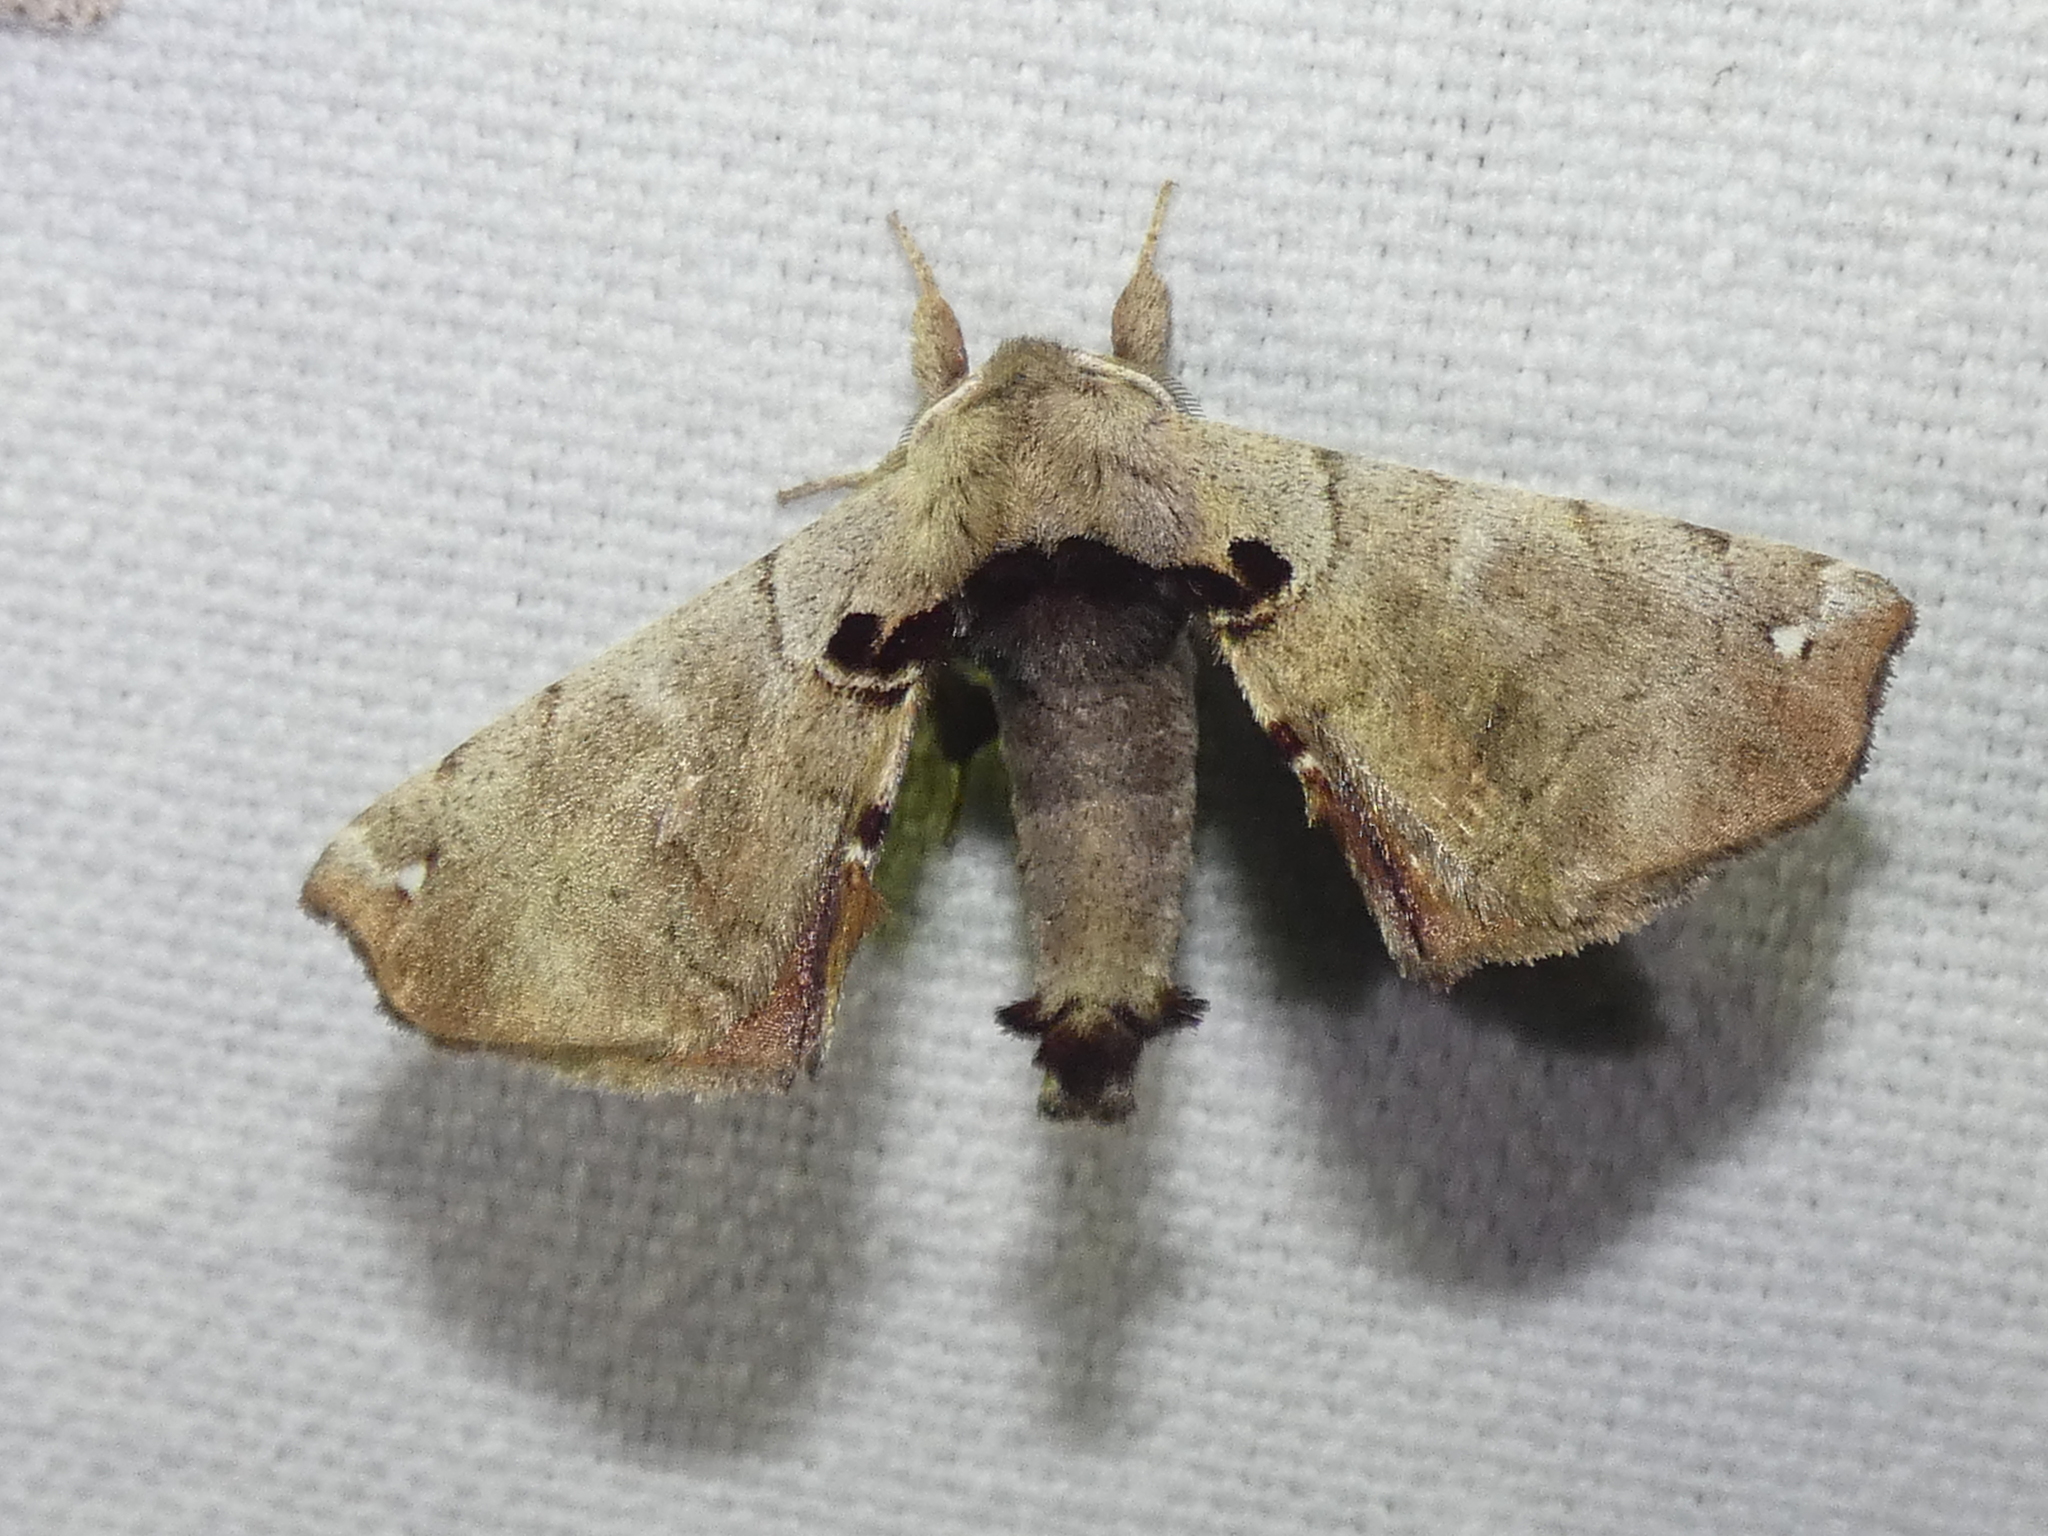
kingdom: Animalia
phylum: Arthropoda
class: Insecta
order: Lepidoptera
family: Apatelodidae
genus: Hygrochroa
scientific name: Hygrochroa Apatelodes torrefacta
